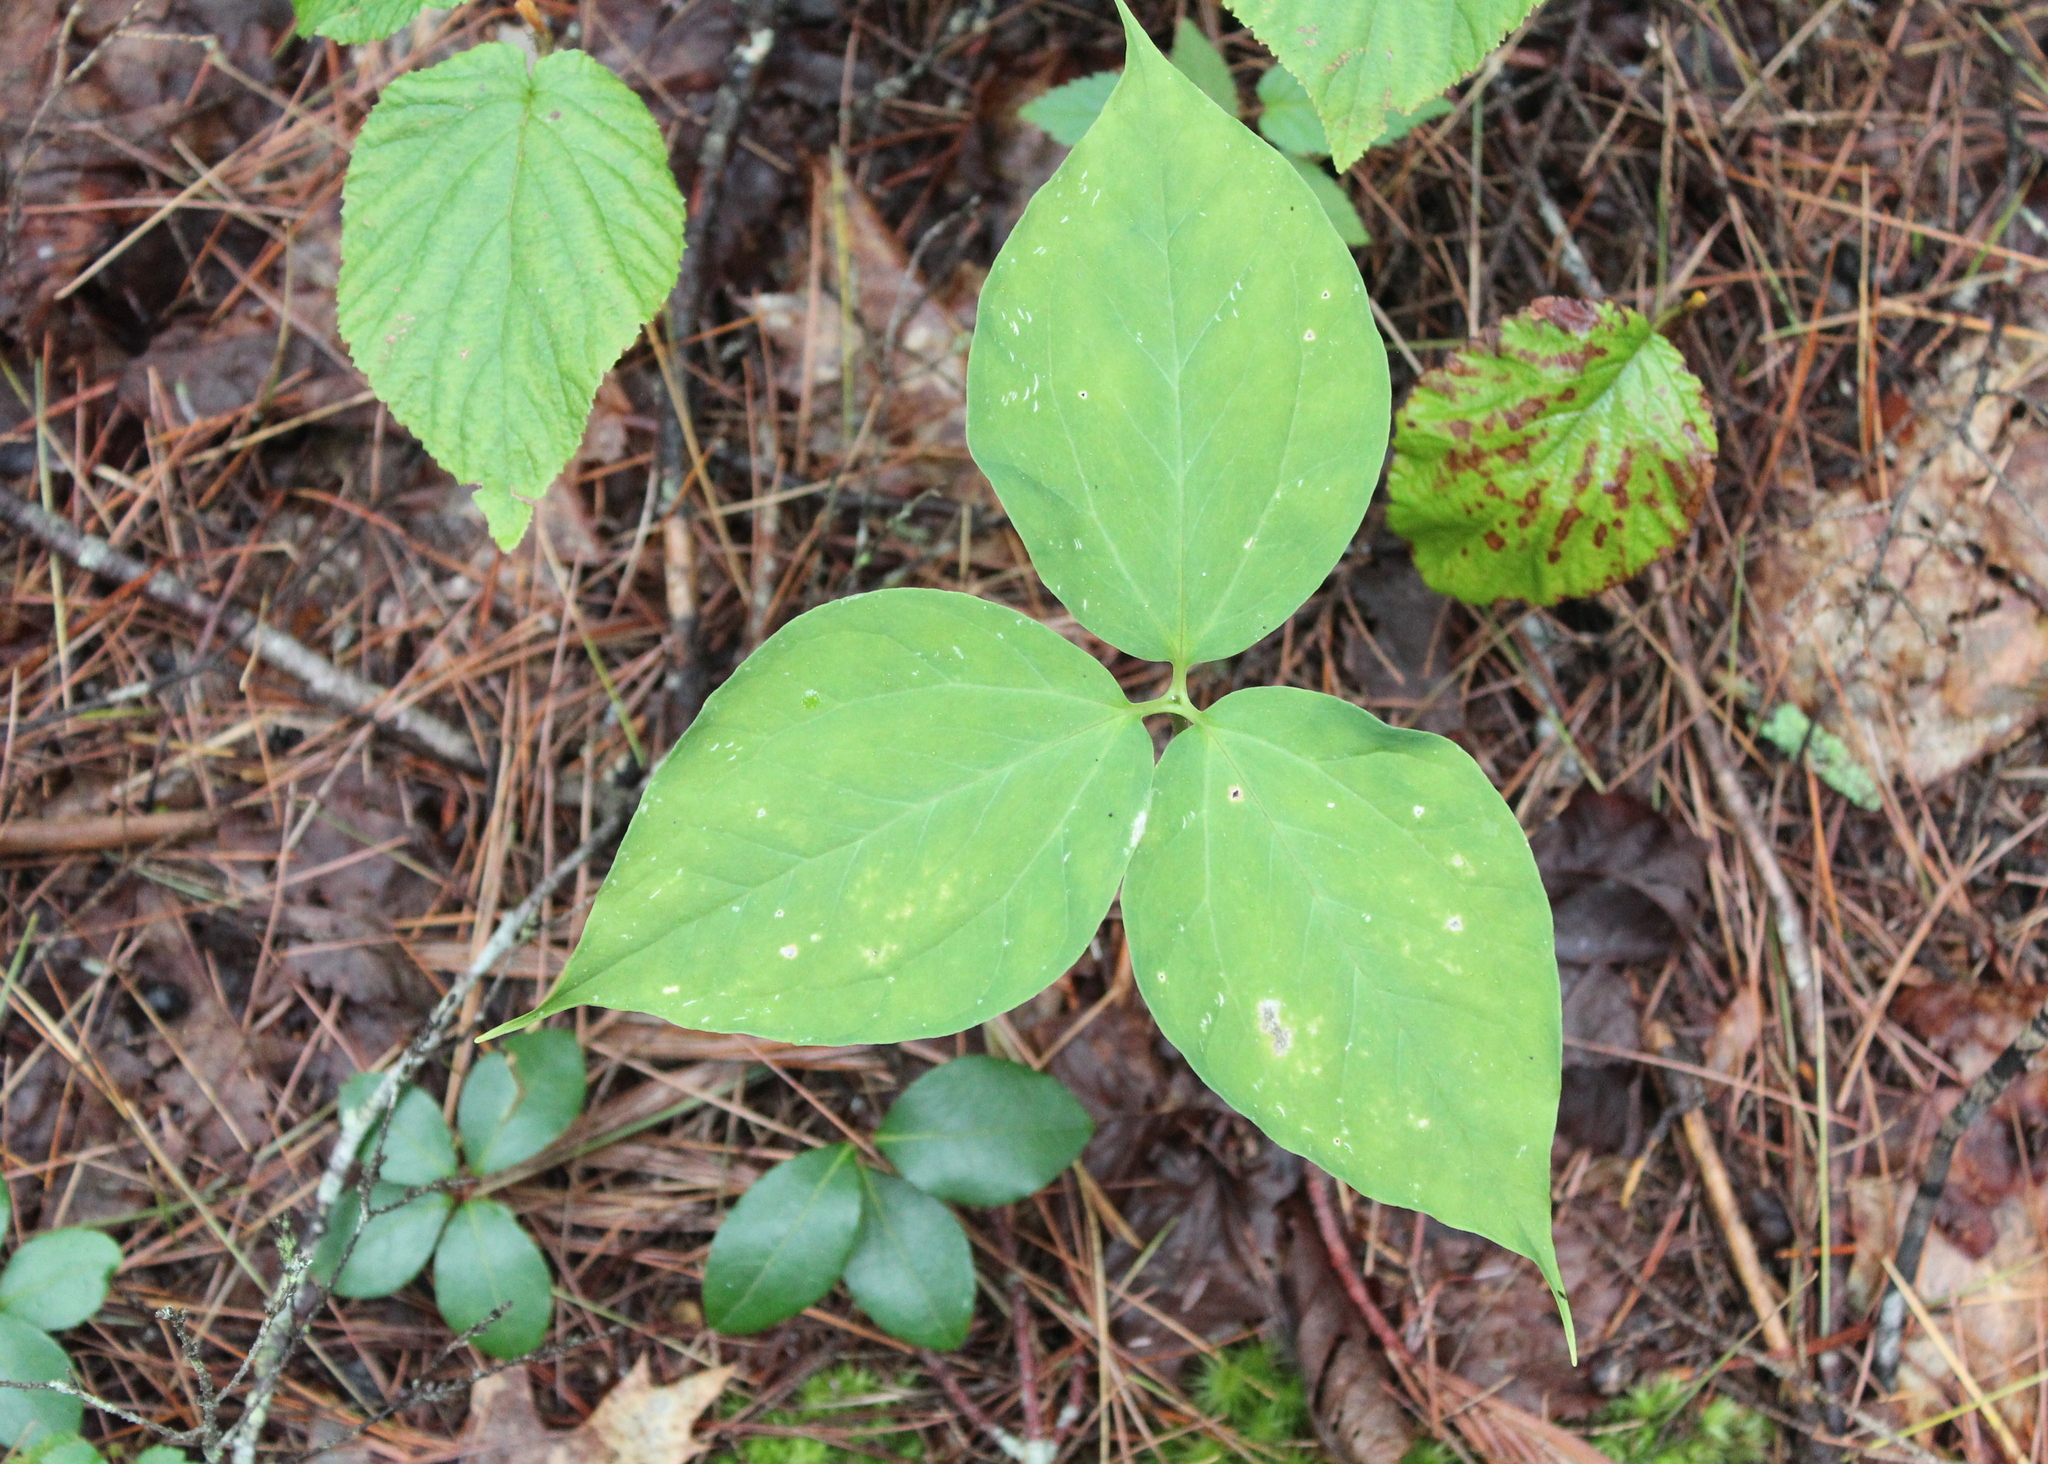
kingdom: Plantae
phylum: Tracheophyta
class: Liliopsida
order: Liliales
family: Melanthiaceae
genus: Trillium
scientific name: Trillium undulatum
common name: Paint trillium
